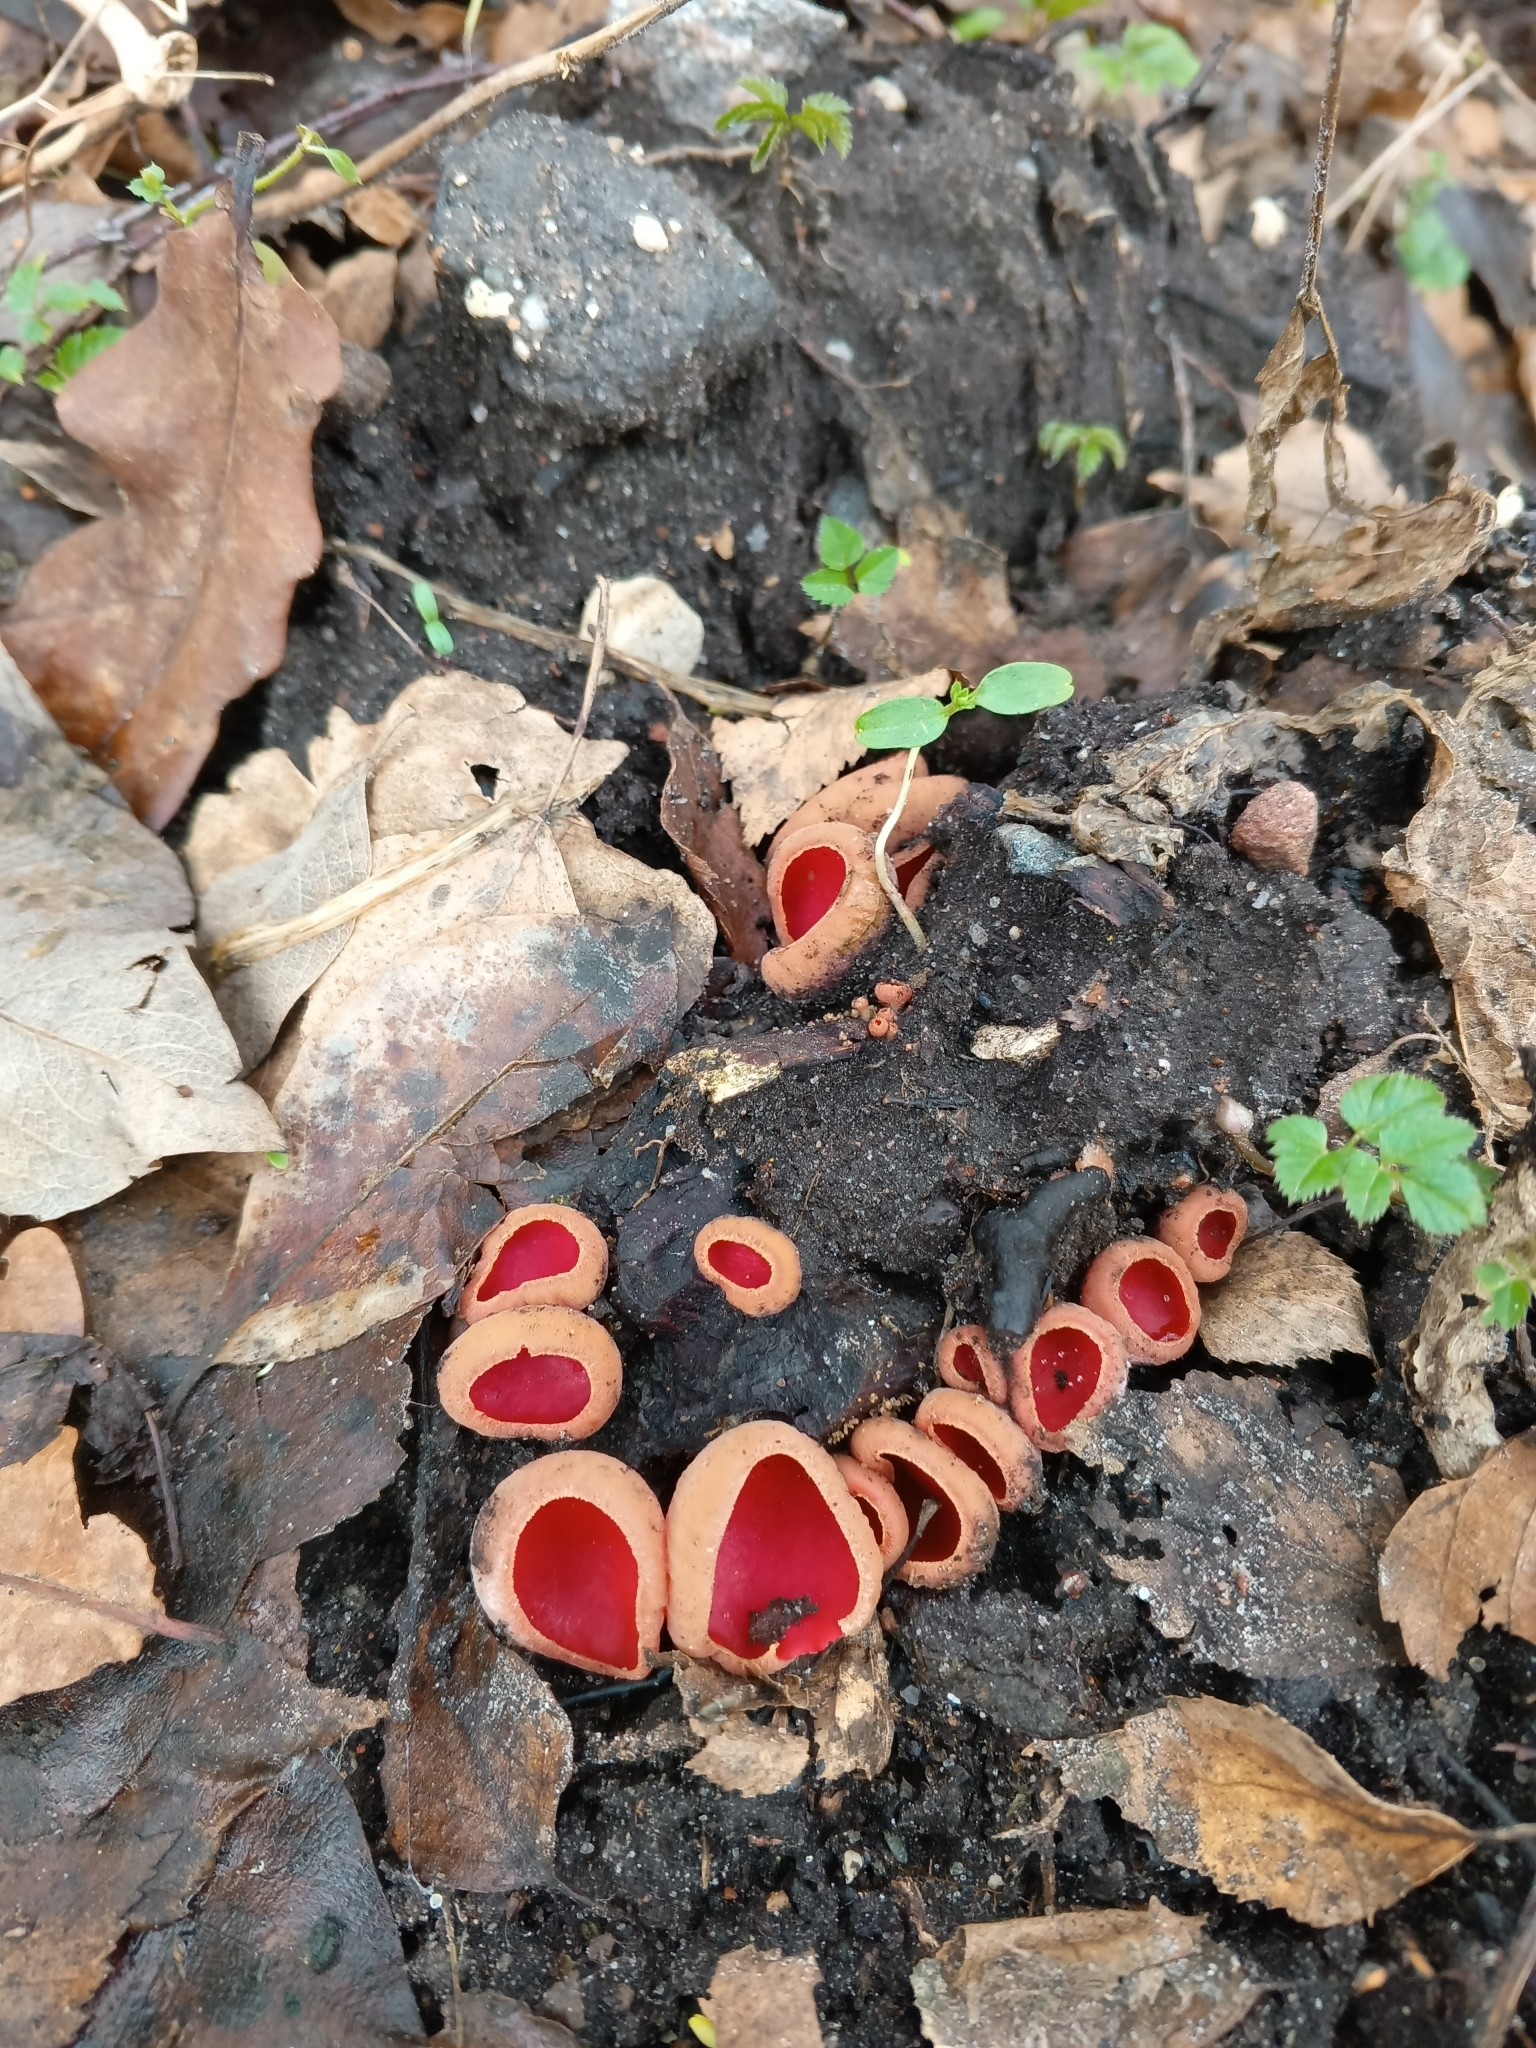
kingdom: Fungi
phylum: Ascomycota
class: Pezizomycetes
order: Pezizales
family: Sarcoscyphaceae
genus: Sarcoscypha
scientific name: Sarcoscypha
